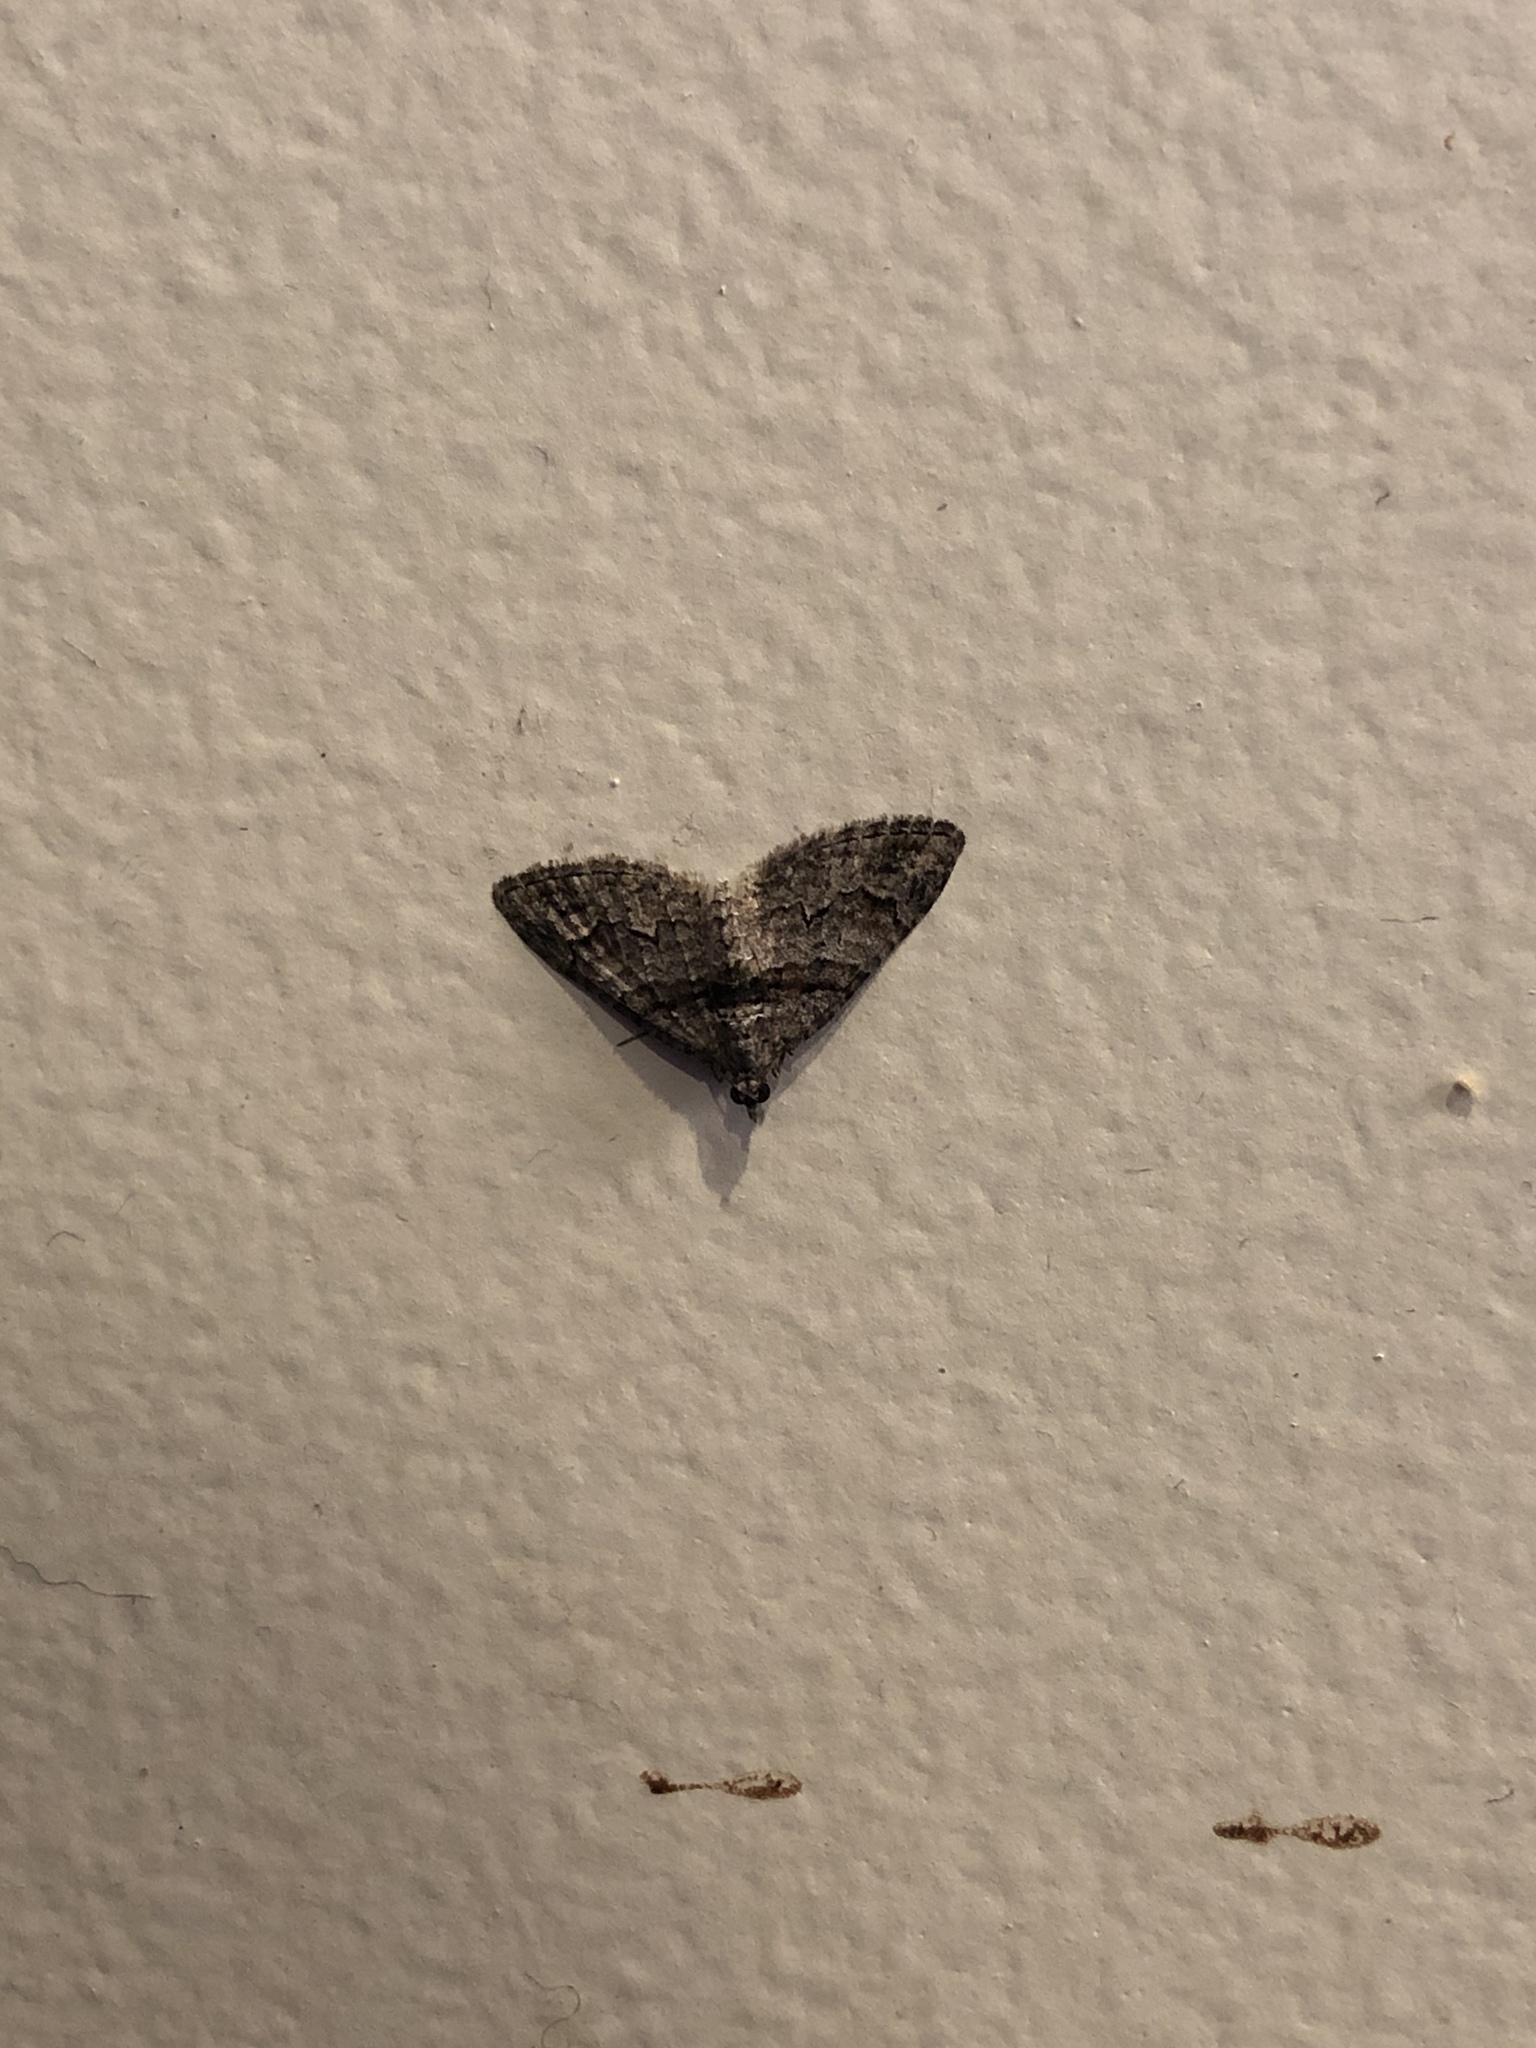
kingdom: Animalia
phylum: Arthropoda
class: Insecta
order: Lepidoptera
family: Geometridae
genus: Phrissogonus
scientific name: Phrissogonus laticostata
